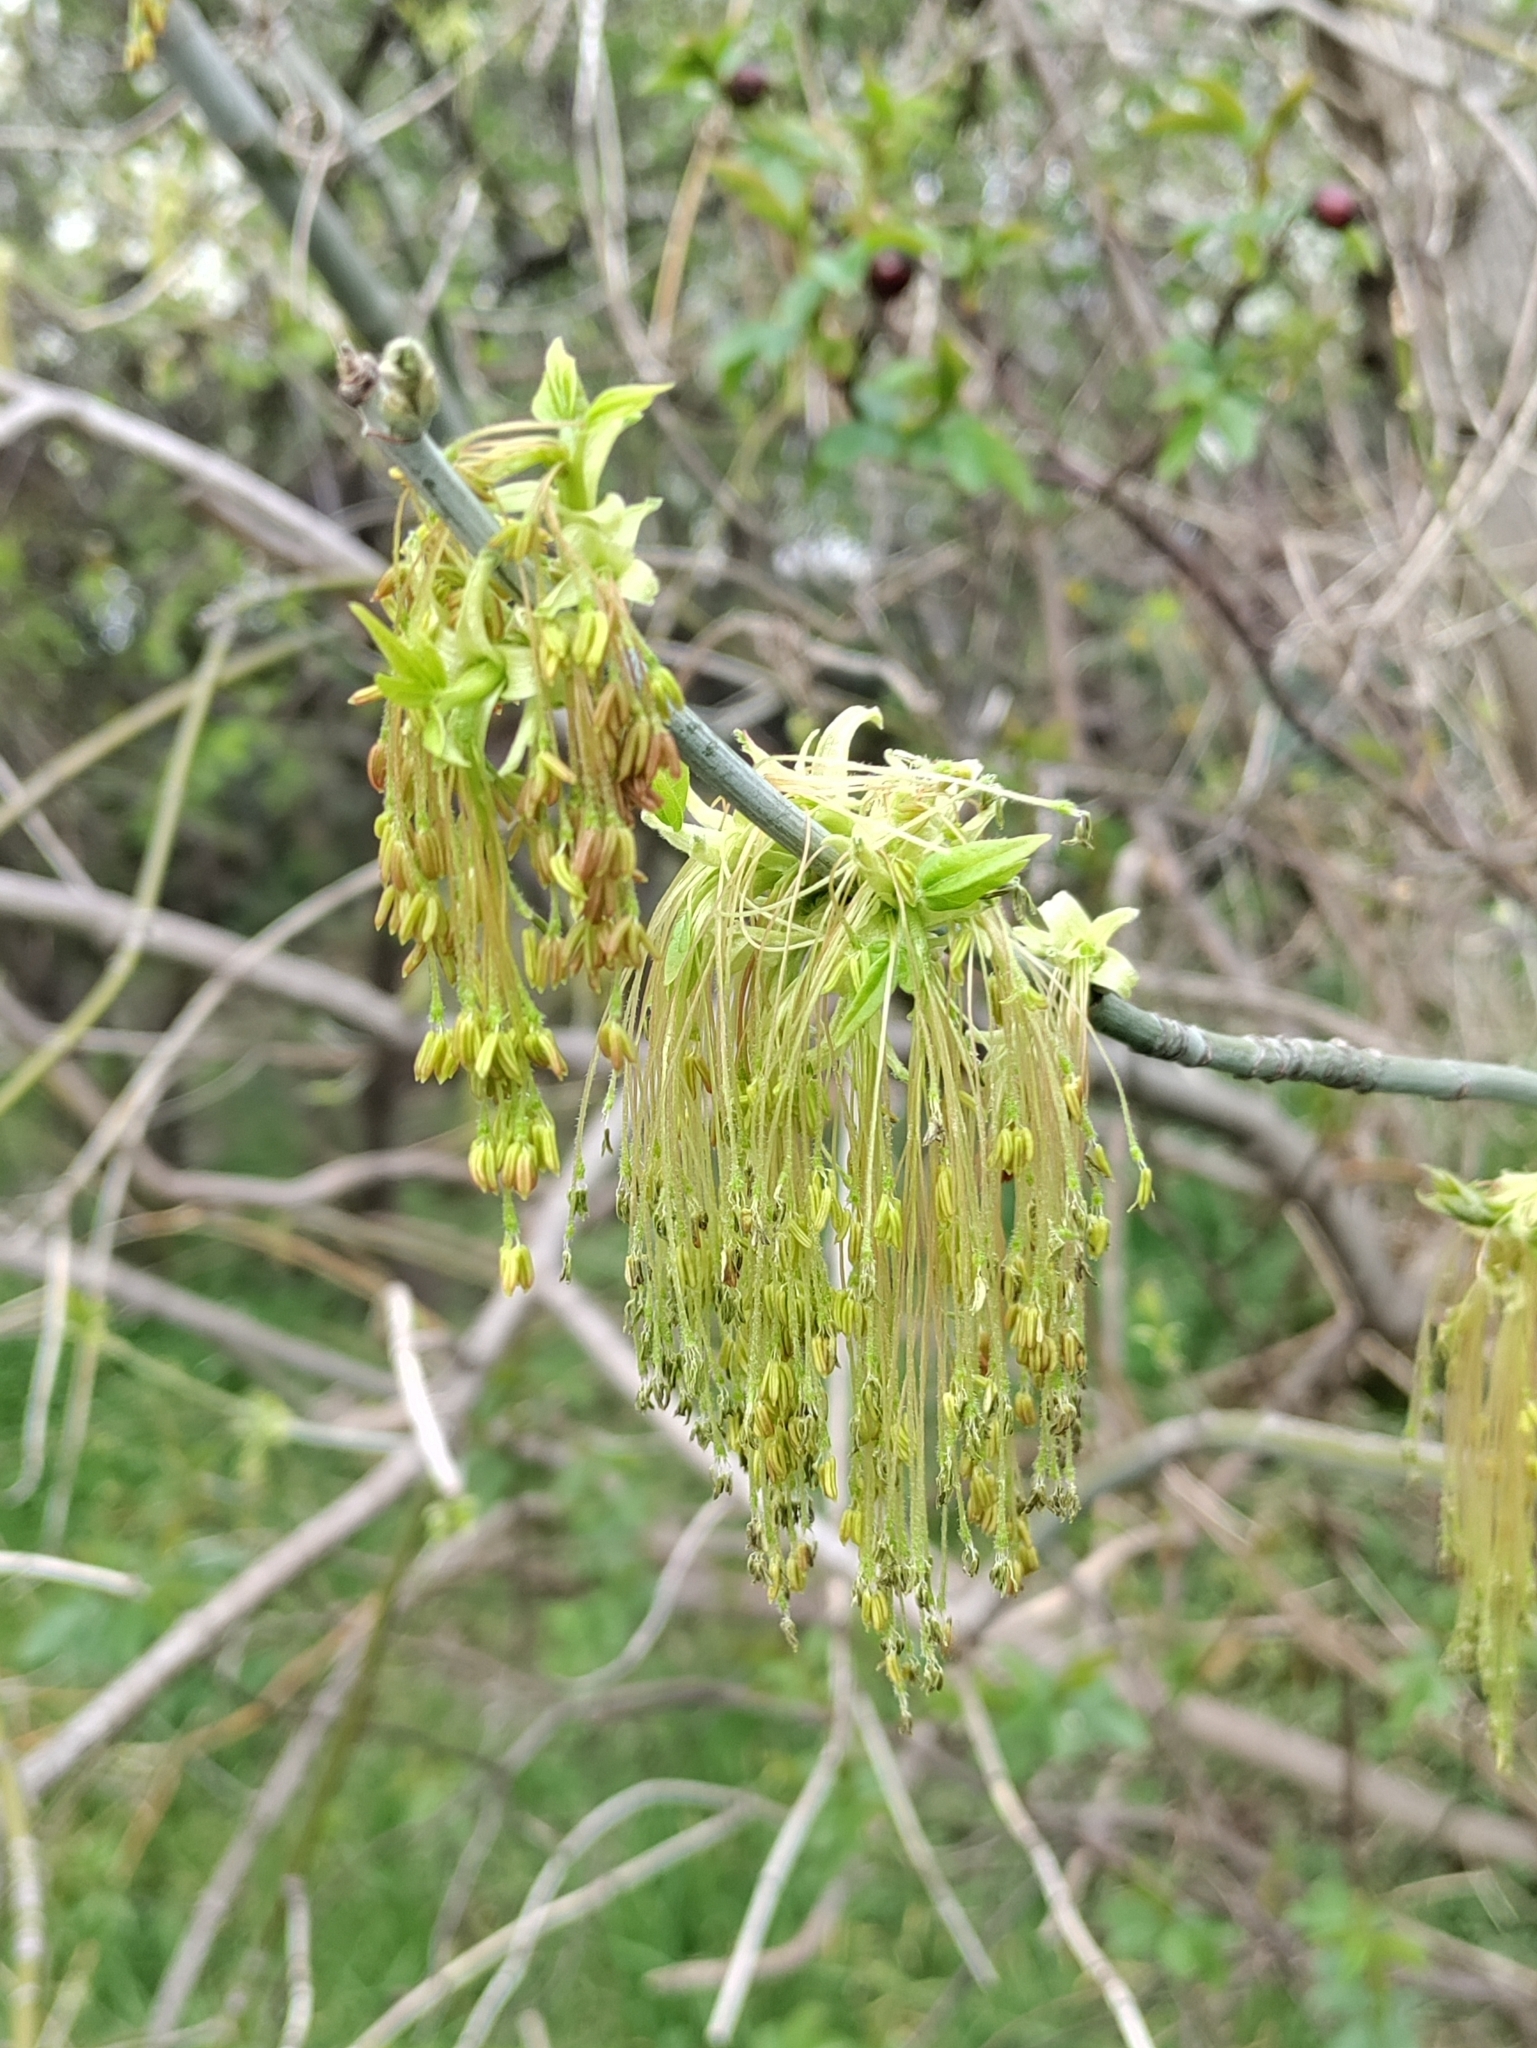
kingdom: Plantae
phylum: Tracheophyta
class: Magnoliopsida
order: Sapindales
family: Sapindaceae
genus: Acer
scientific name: Acer negundo
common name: Ashleaf maple
